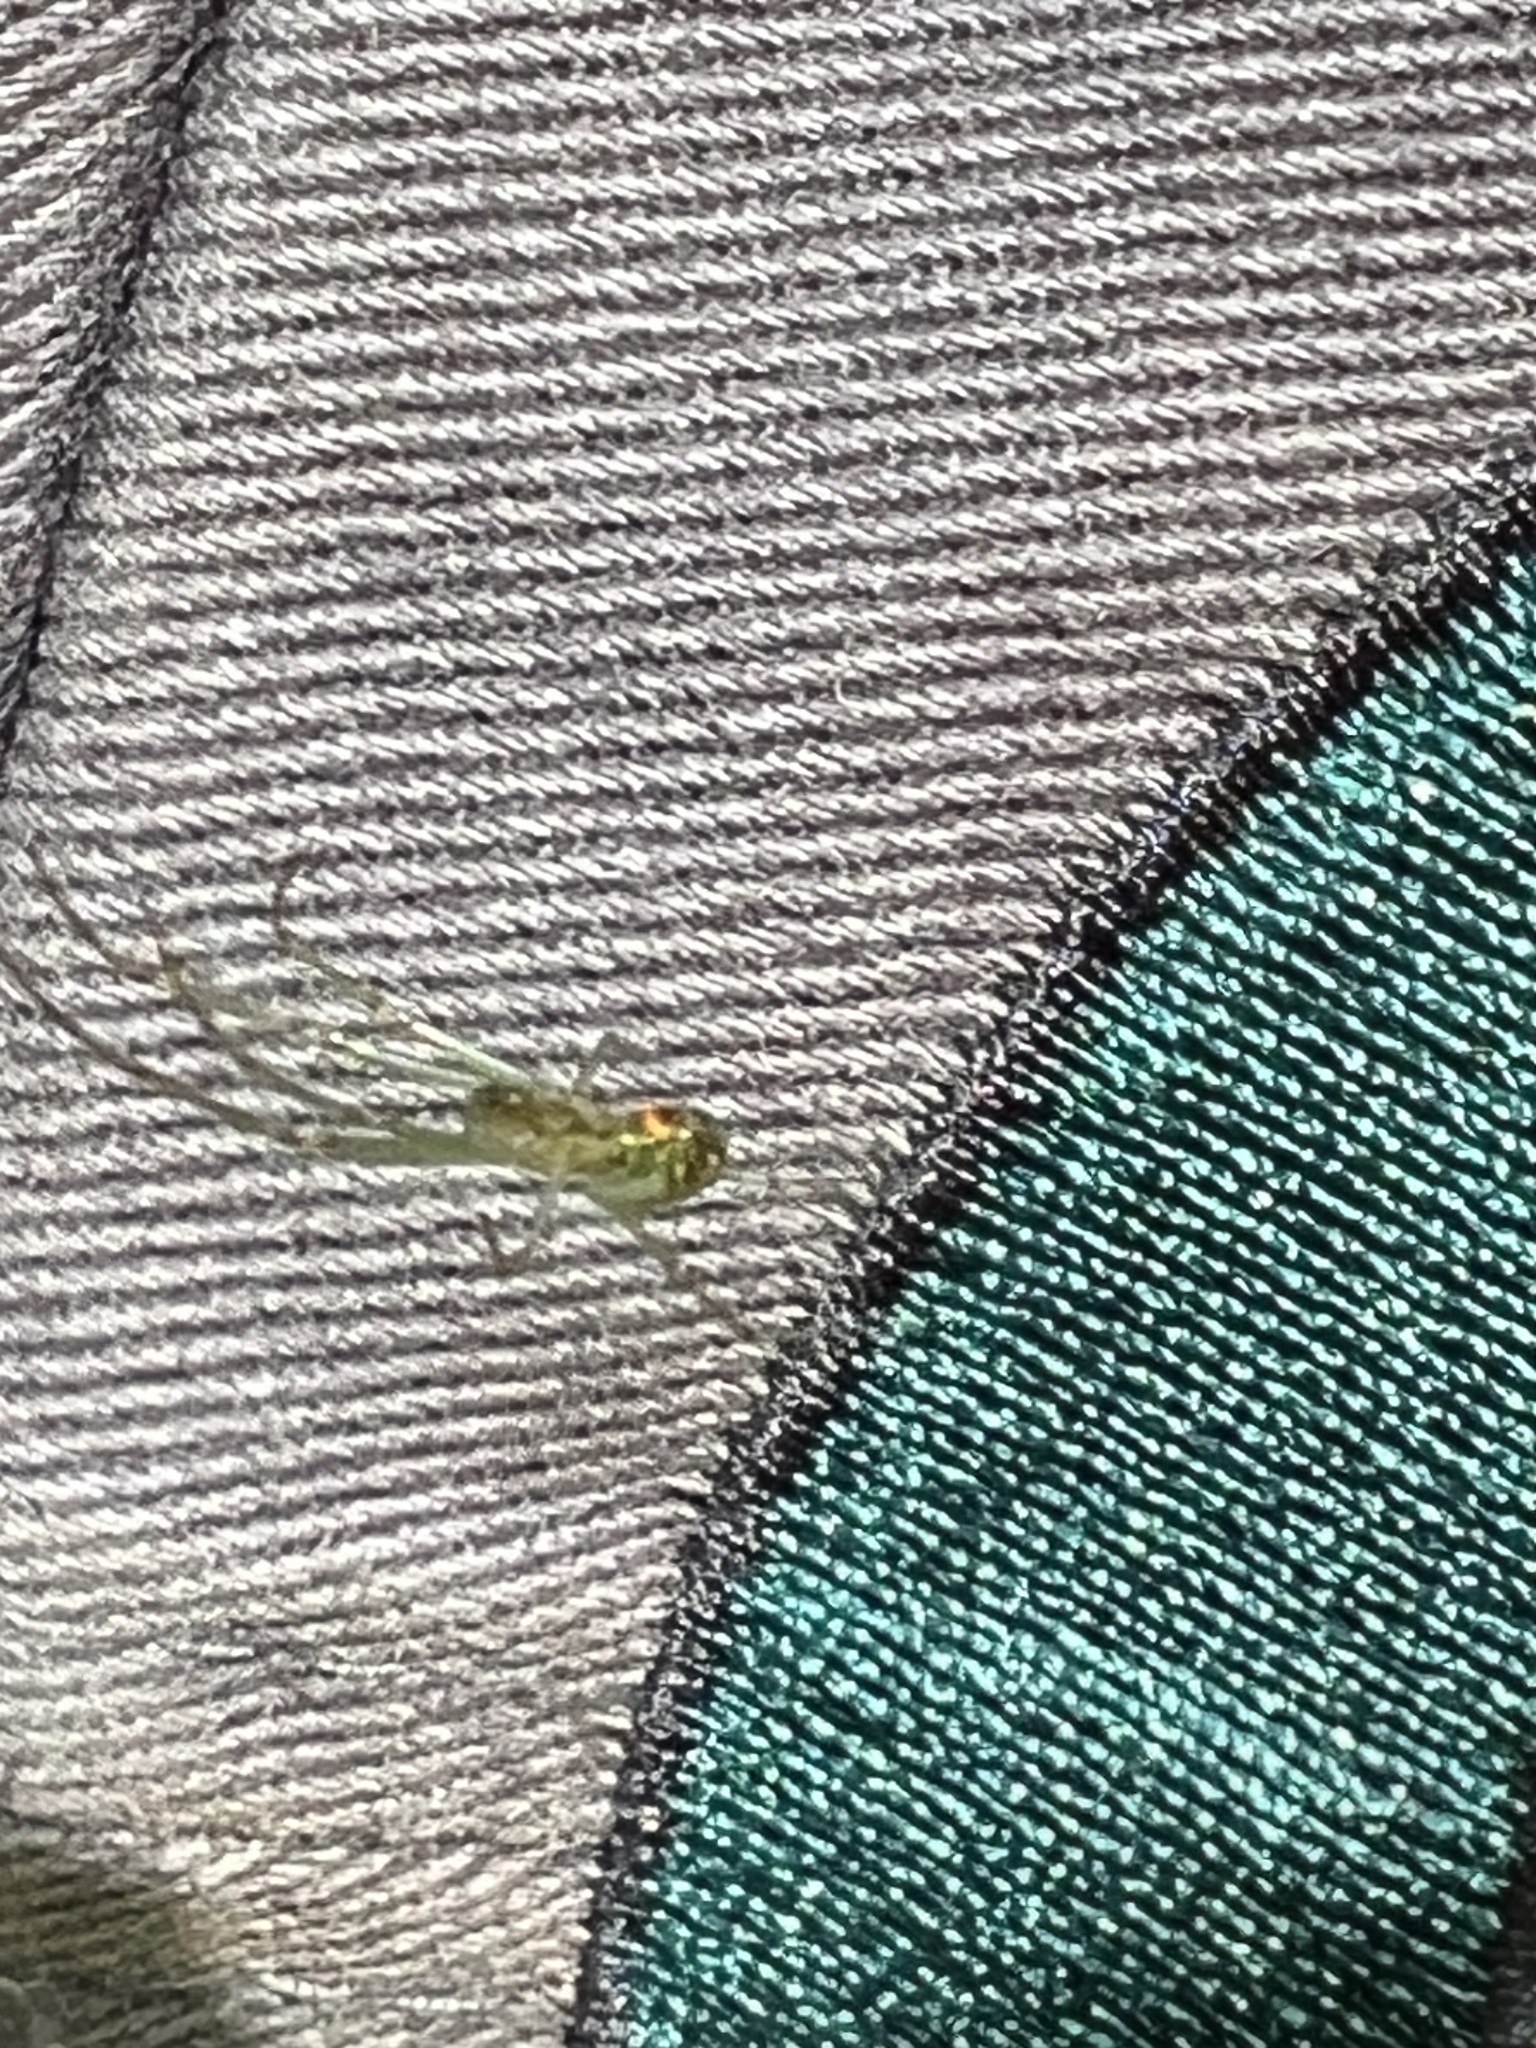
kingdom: Animalia
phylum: Arthropoda
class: Arachnida
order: Araneae
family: Tetragnathidae
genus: Leucauge
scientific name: Leucauge venusta
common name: Longjawed orb weavers
